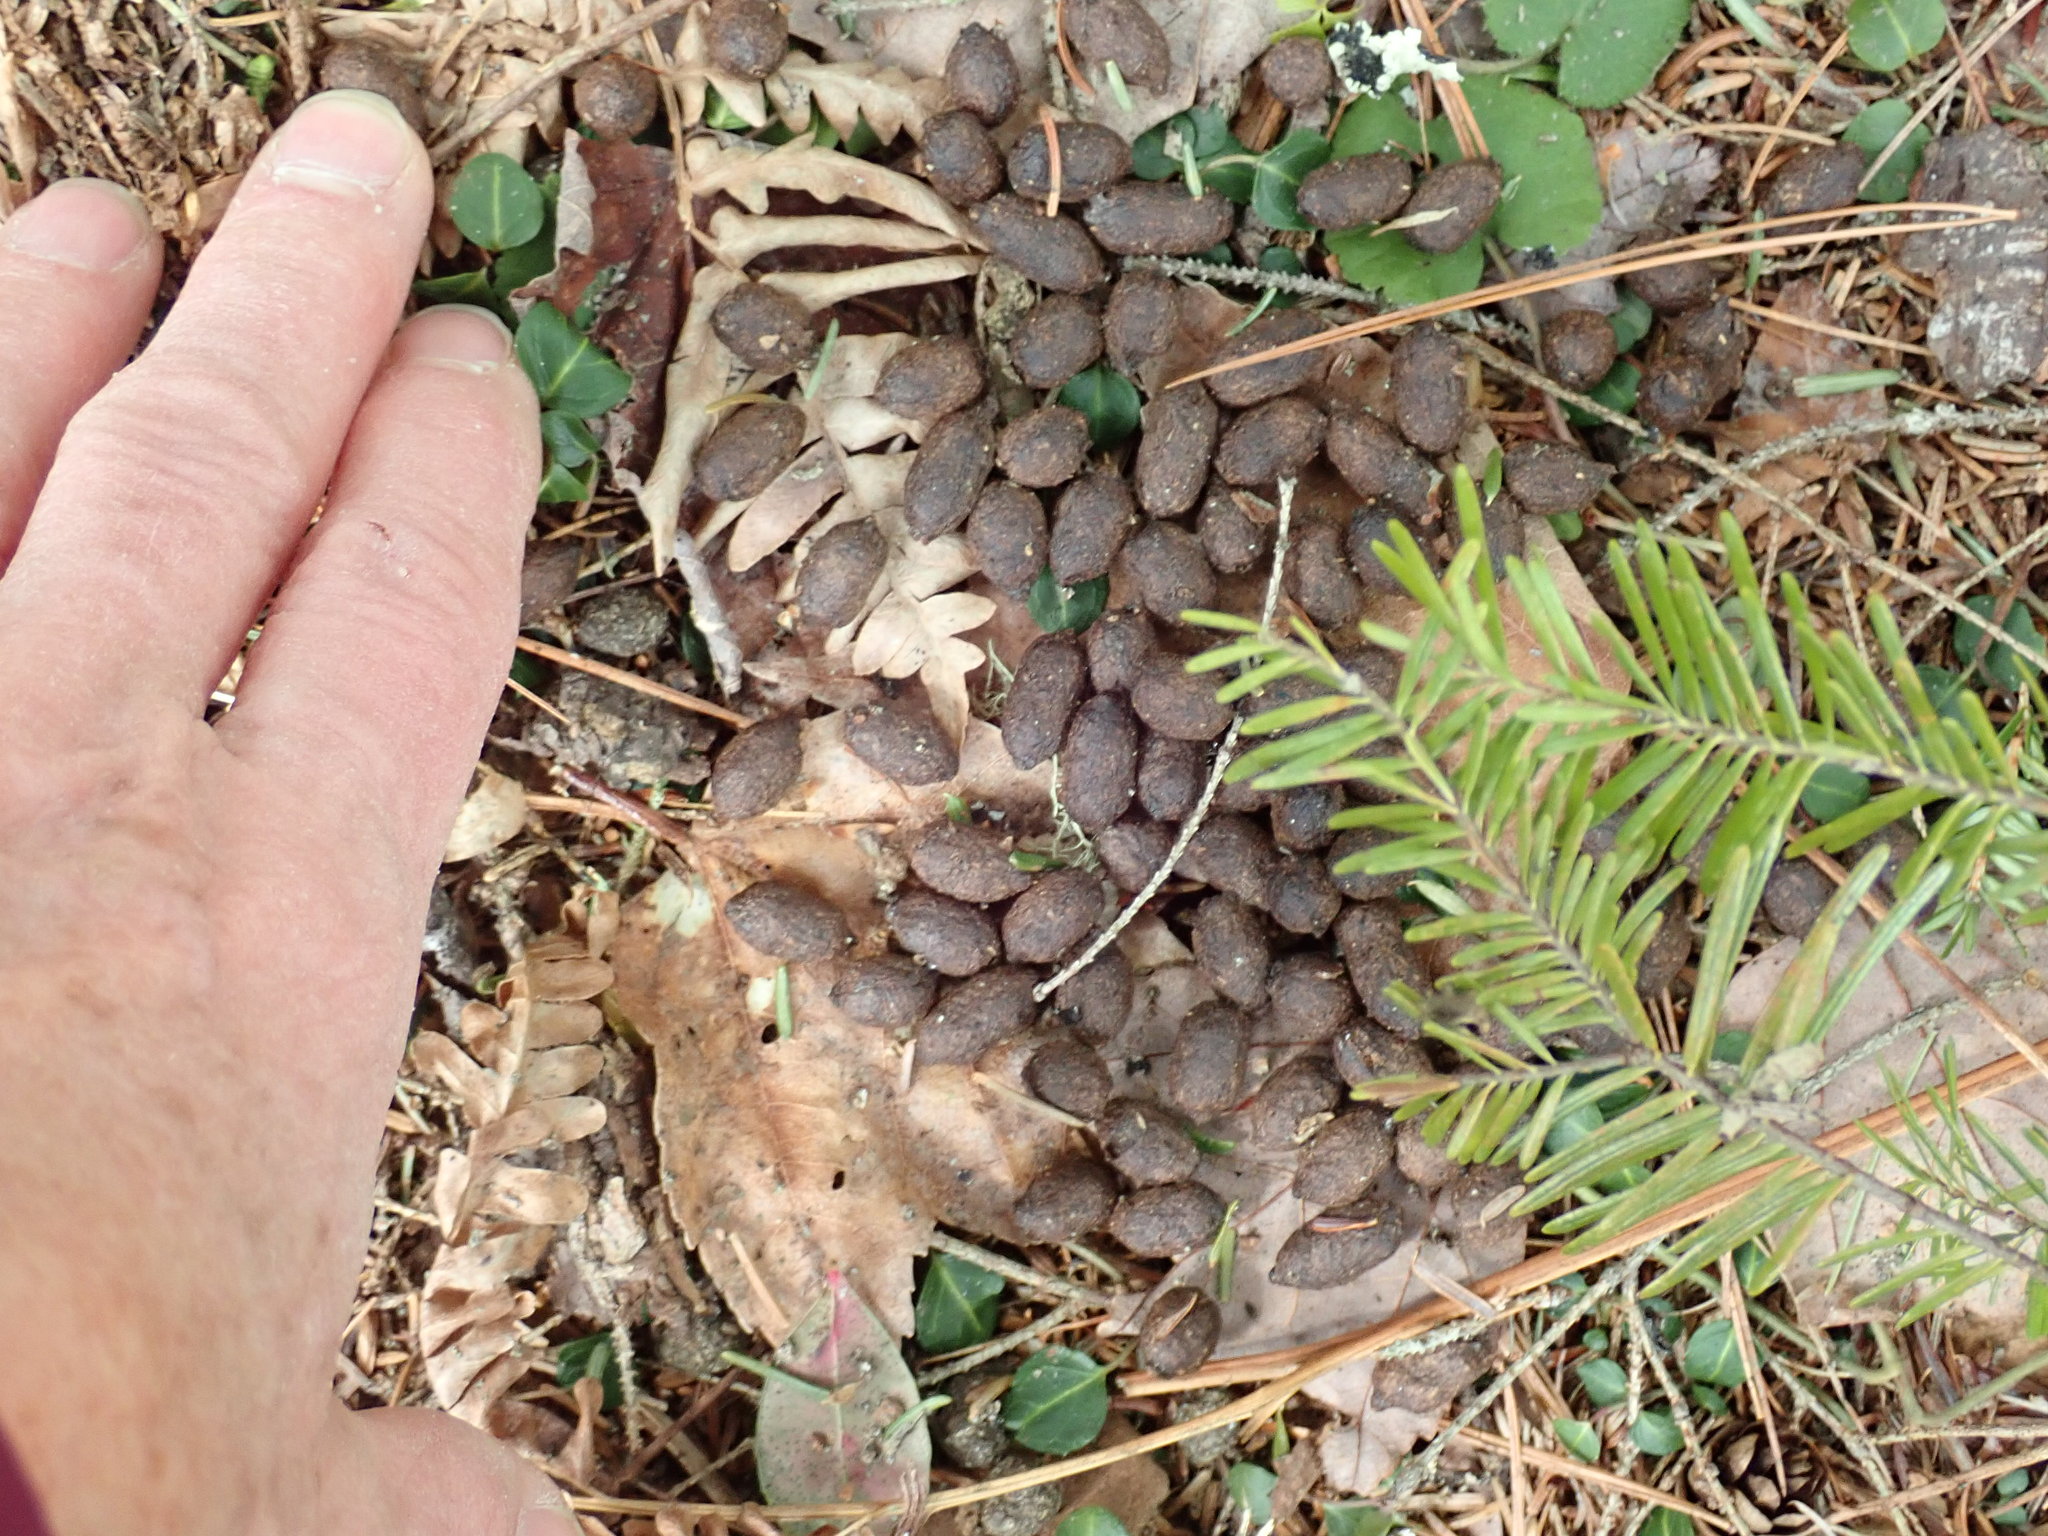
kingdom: Animalia
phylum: Chordata
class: Mammalia
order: Artiodactyla
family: Cervidae
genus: Odocoileus
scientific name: Odocoileus virginianus
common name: White-tailed deer
